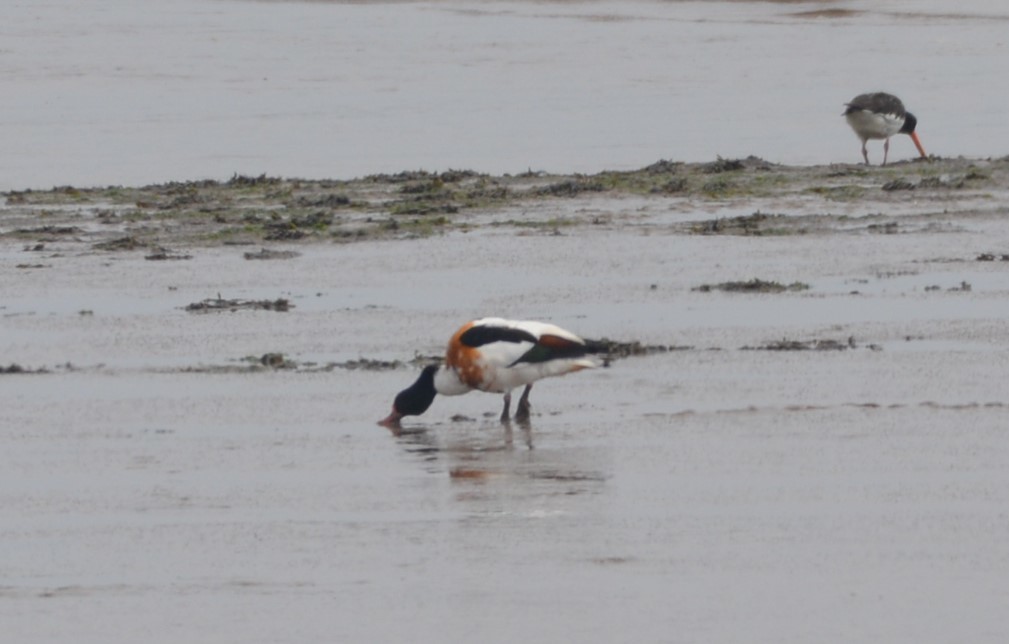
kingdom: Animalia
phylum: Chordata
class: Aves
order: Anseriformes
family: Anatidae
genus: Tadorna
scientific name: Tadorna tadorna
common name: Common shelduck
